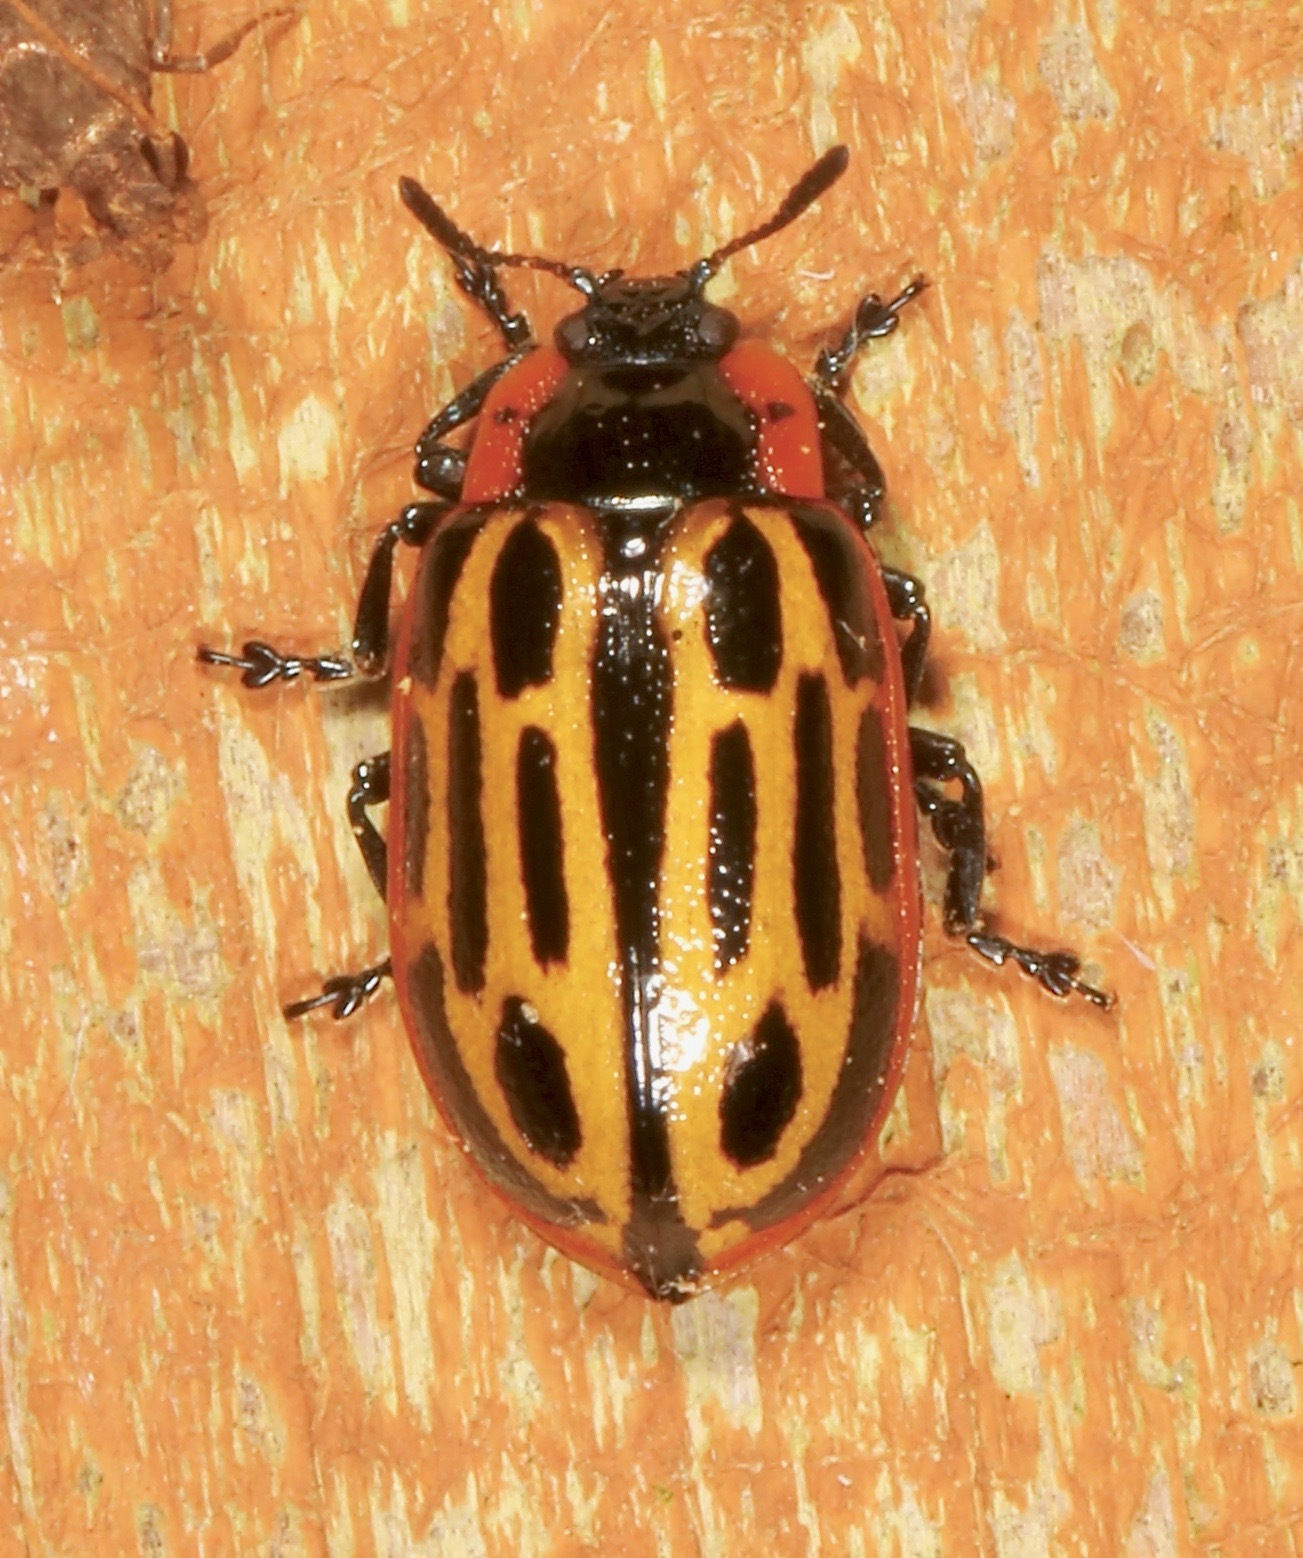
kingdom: Animalia
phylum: Arthropoda
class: Insecta
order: Coleoptera
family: Chrysomelidae
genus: Aethiopocassis
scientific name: Aethiopocassis scripta
